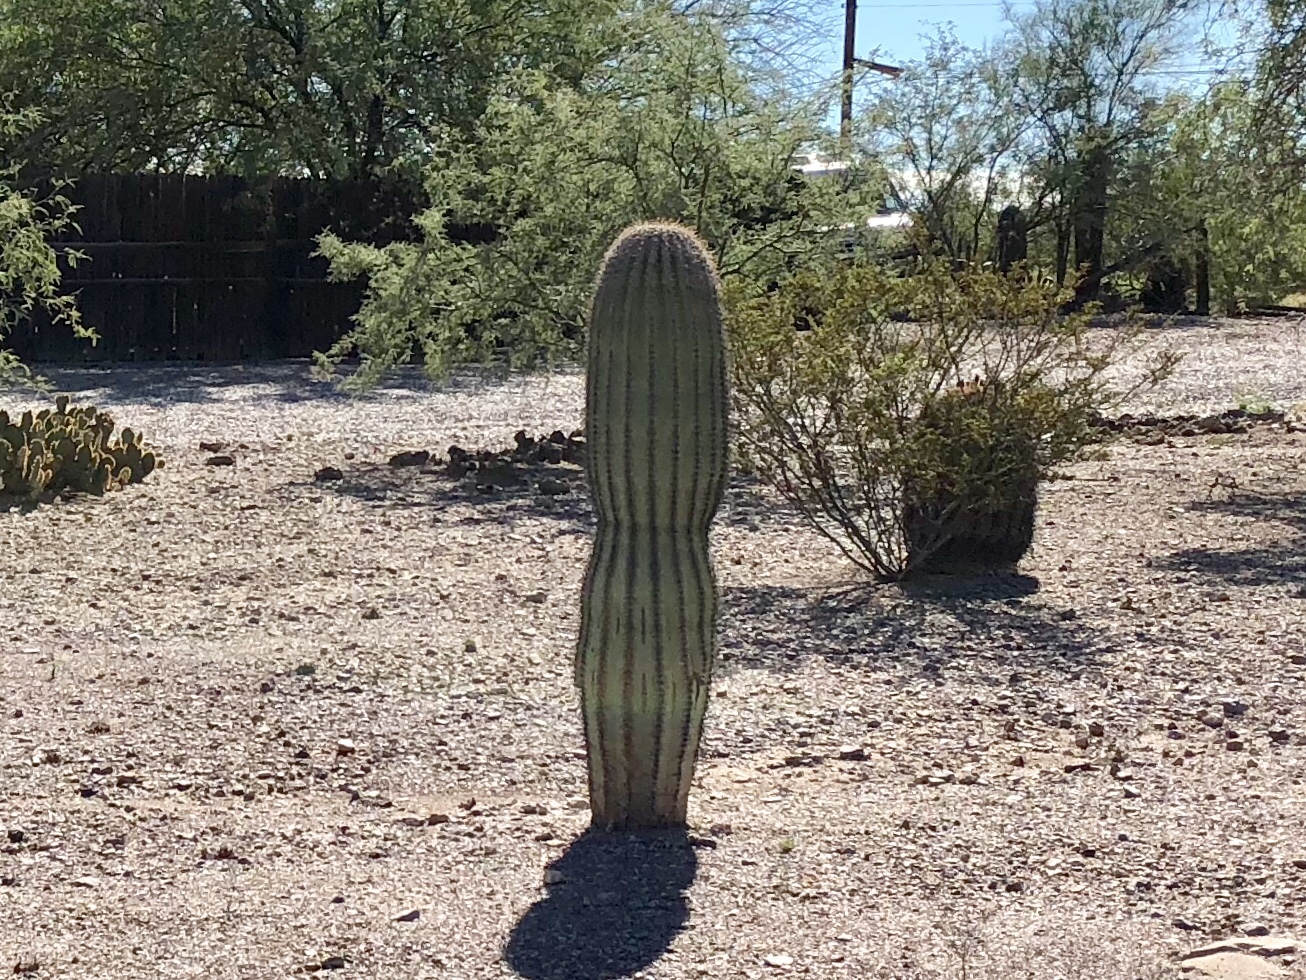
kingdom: Plantae
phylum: Tracheophyta
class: Magnoliopsida
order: Caryophyllales
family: Cactaceae
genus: Carnegiea
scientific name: Carnegiea gigantea
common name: Saguaro
